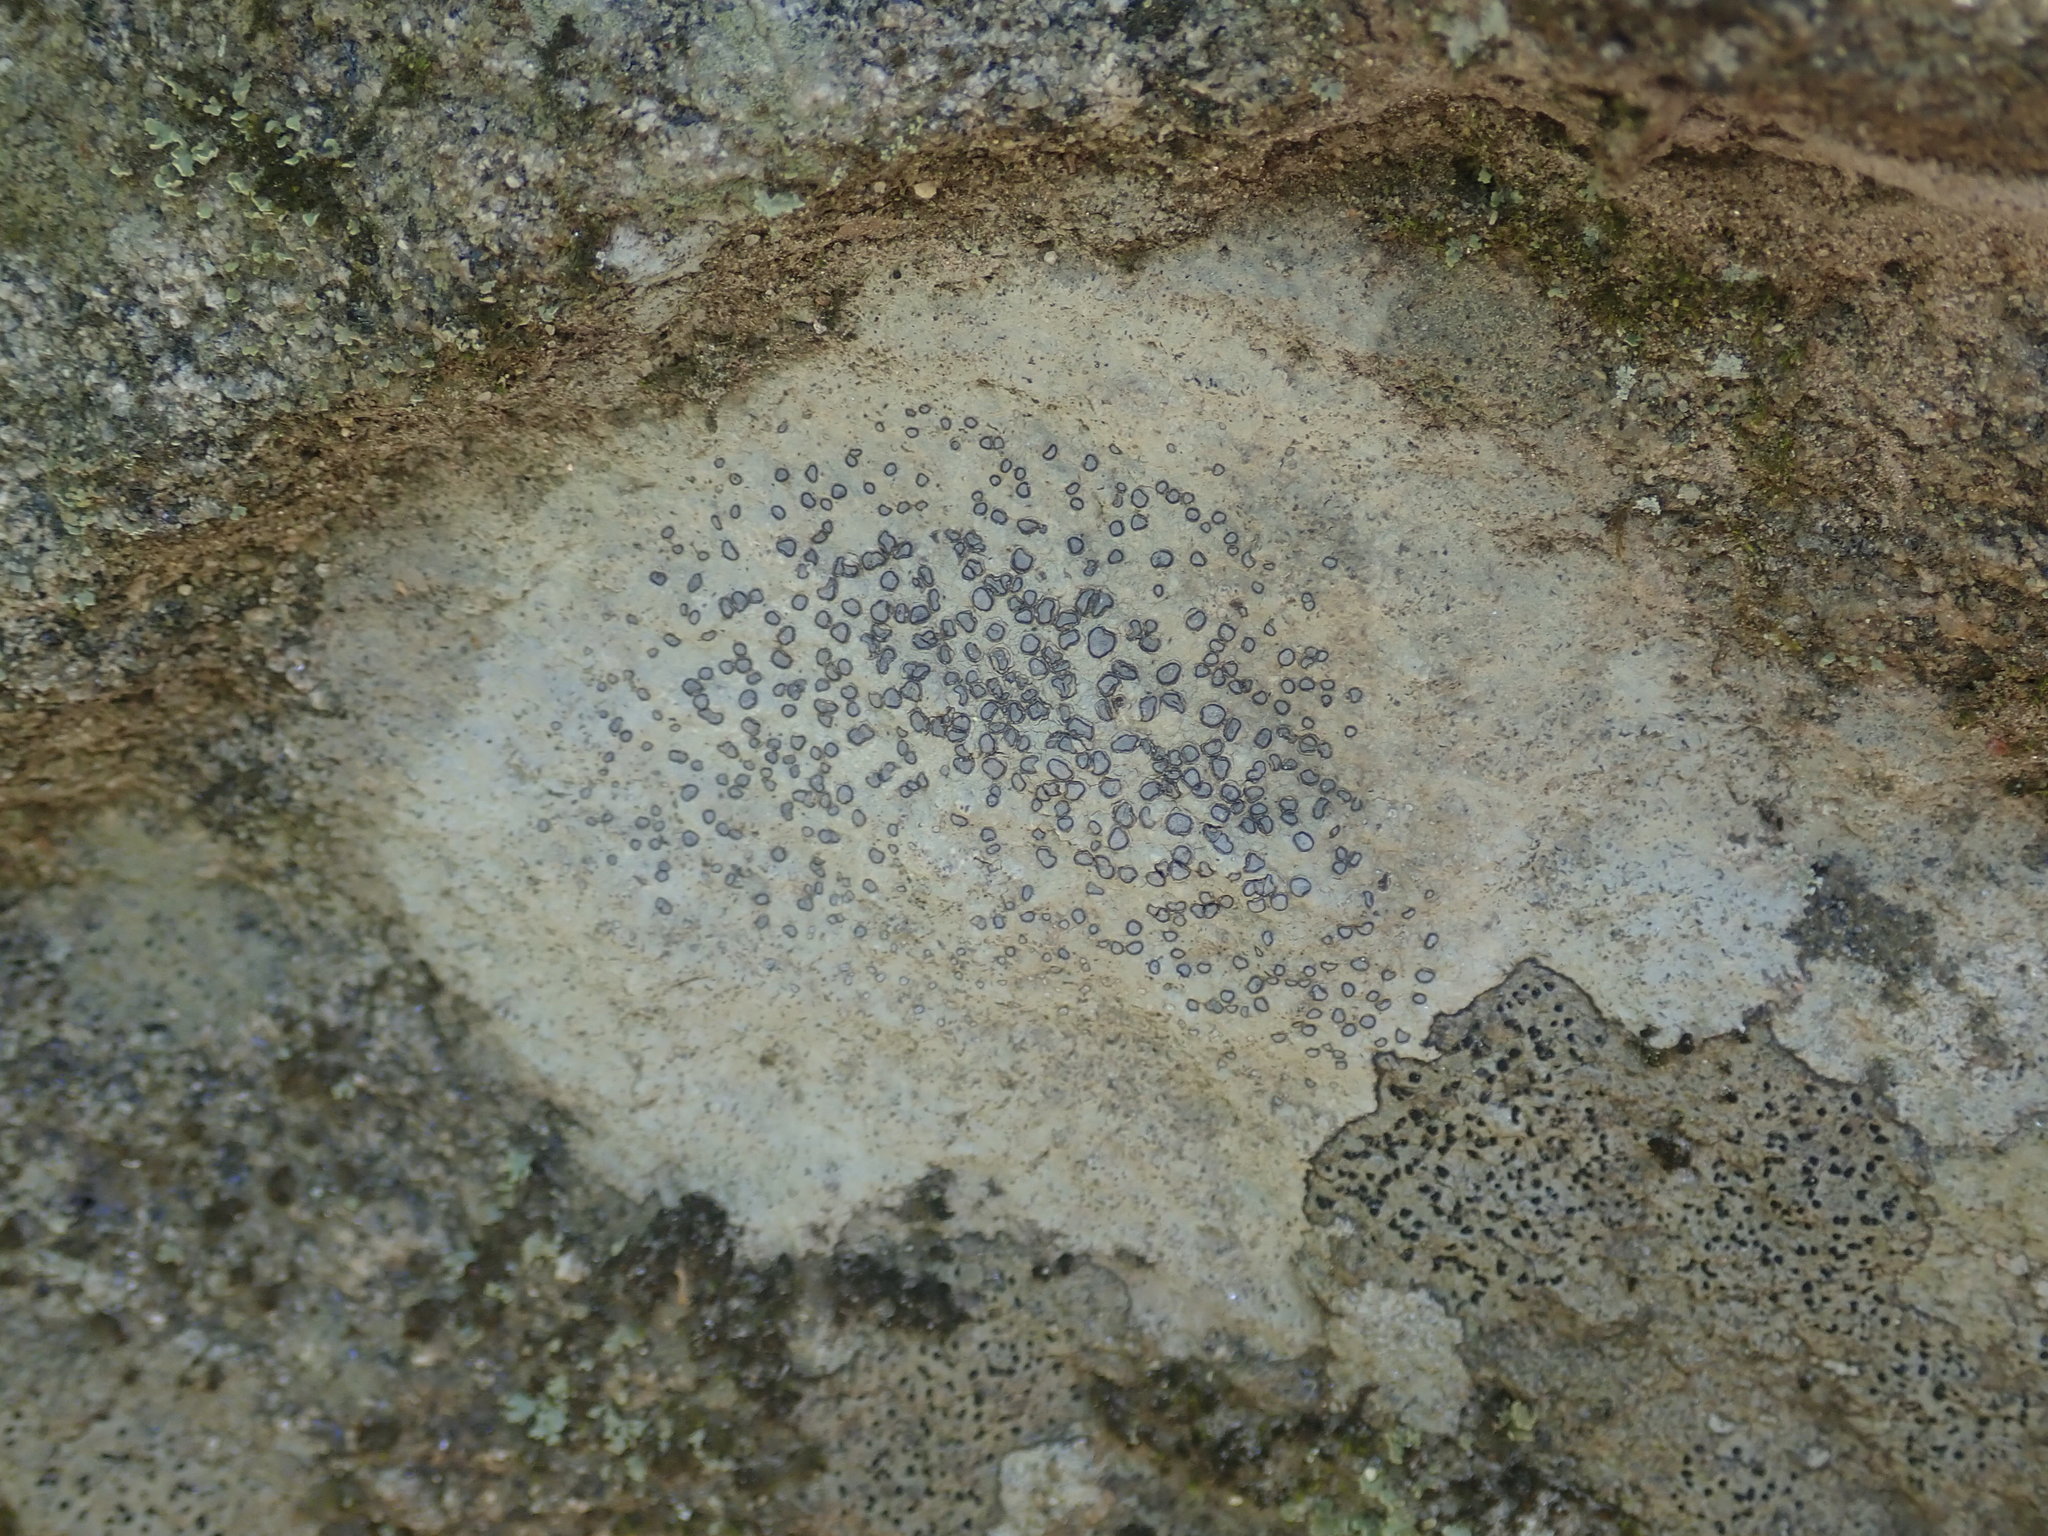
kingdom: Fungi
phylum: Ascomycota
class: Lecanoromycetes
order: Lecideales
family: Lecideaceae
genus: Porpidia
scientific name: Porpidia albocaerulescens
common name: Smokey-eyed boulder lichen
